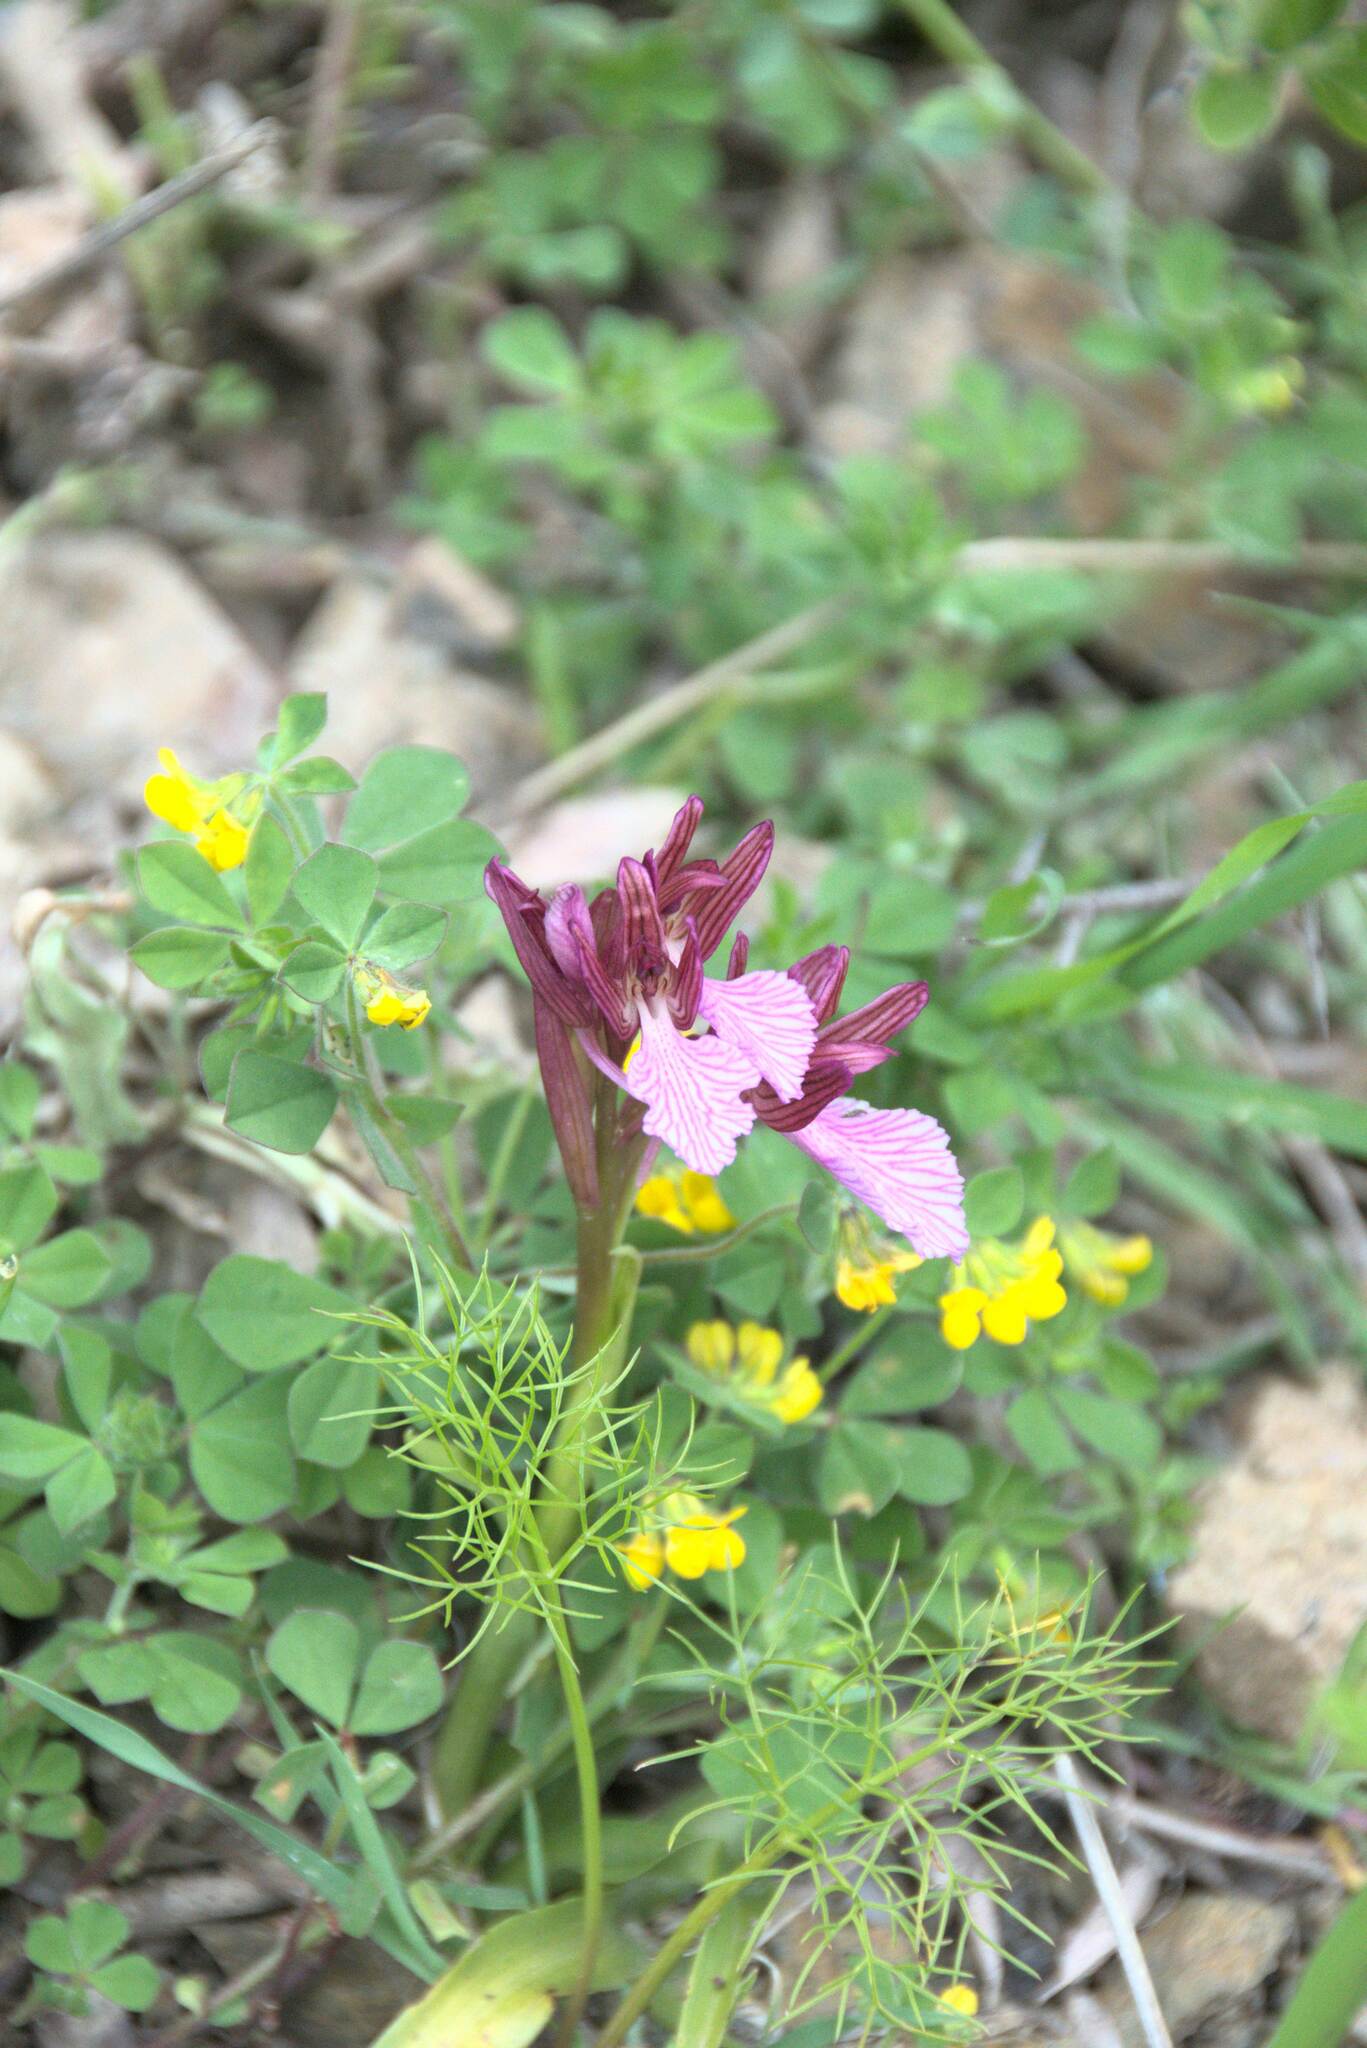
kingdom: Plantae
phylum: Tracheophyta
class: Liliopsida
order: Asparagales
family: Orchidaceae
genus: Anacamptis
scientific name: Anacamptis papilionacea
